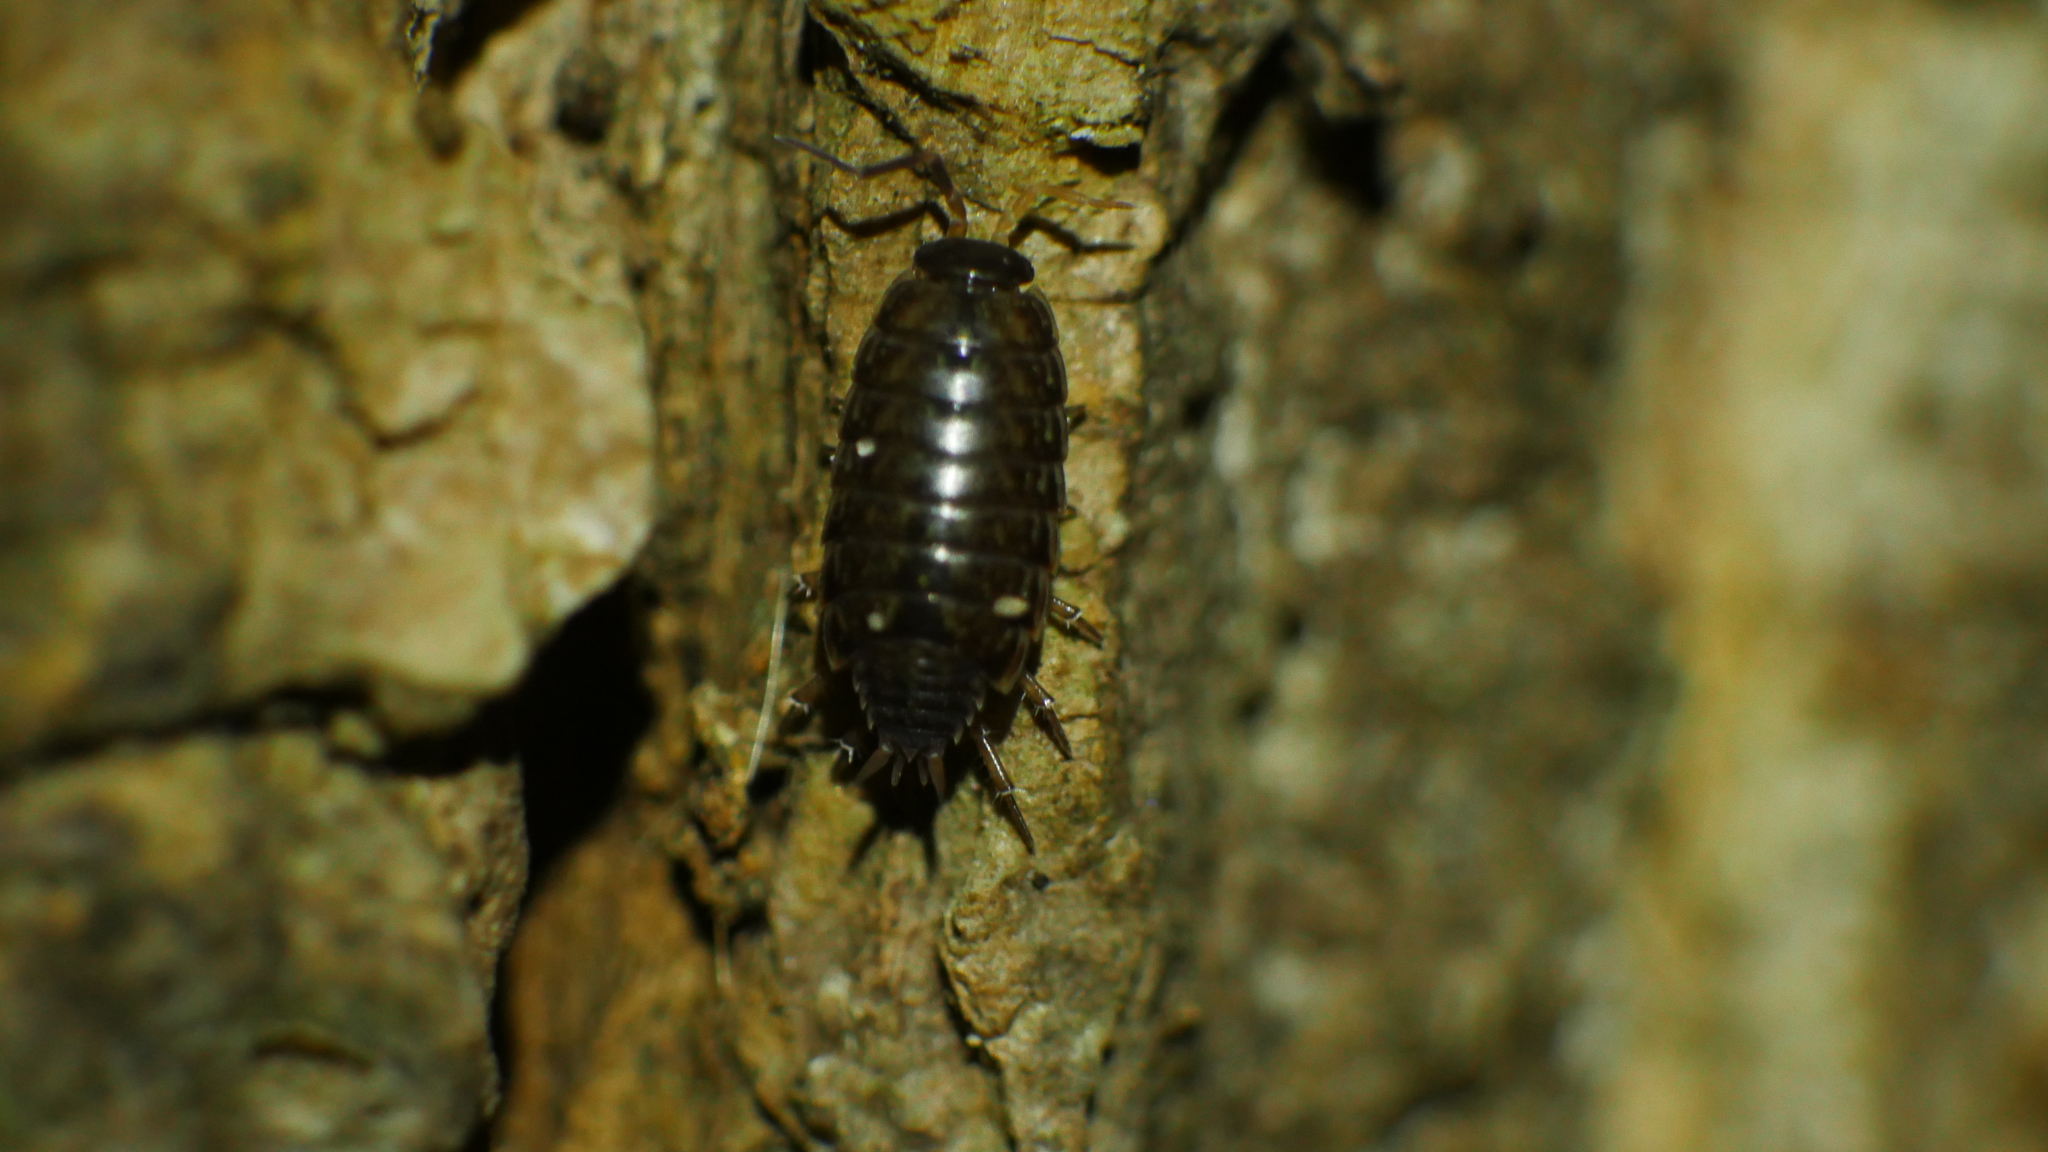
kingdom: Animalia
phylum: Arthropoda
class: Malacostraca
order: Isopoda
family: Philosciidae
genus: Philoscia
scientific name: Philoscia muscorum
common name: Common striped woodlouse
